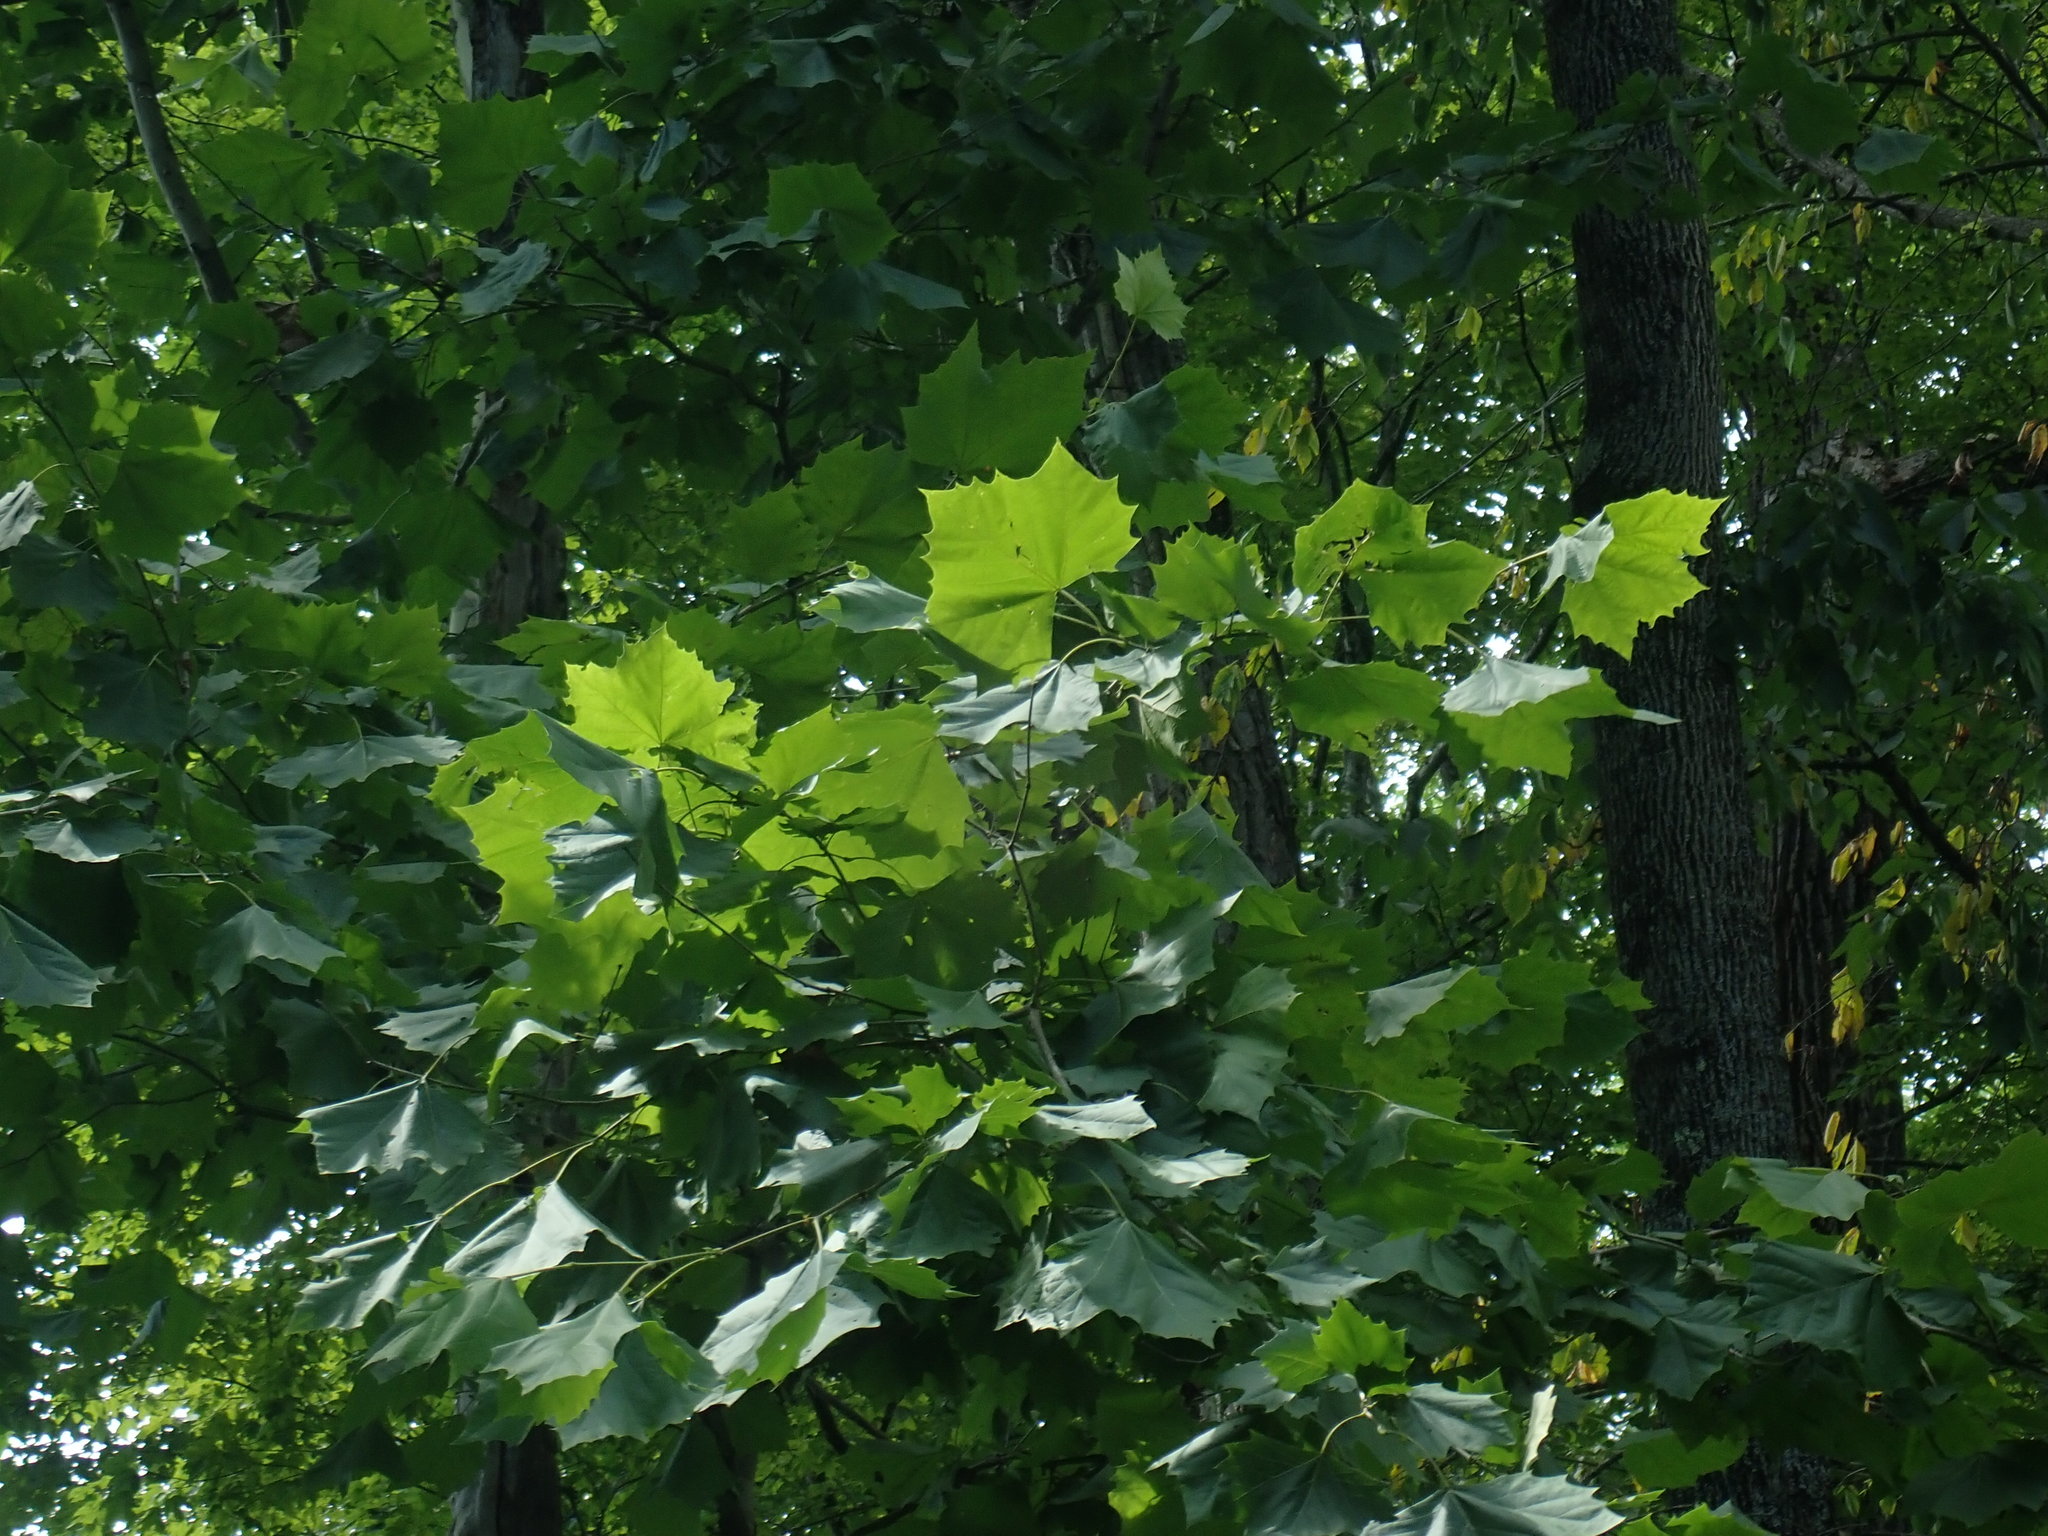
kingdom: Plantae
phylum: Tracheophyta
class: Magnoliopsida
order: Proteales
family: Platanaceae
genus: Platanus
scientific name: Platanus occidentalis
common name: American sycamore
